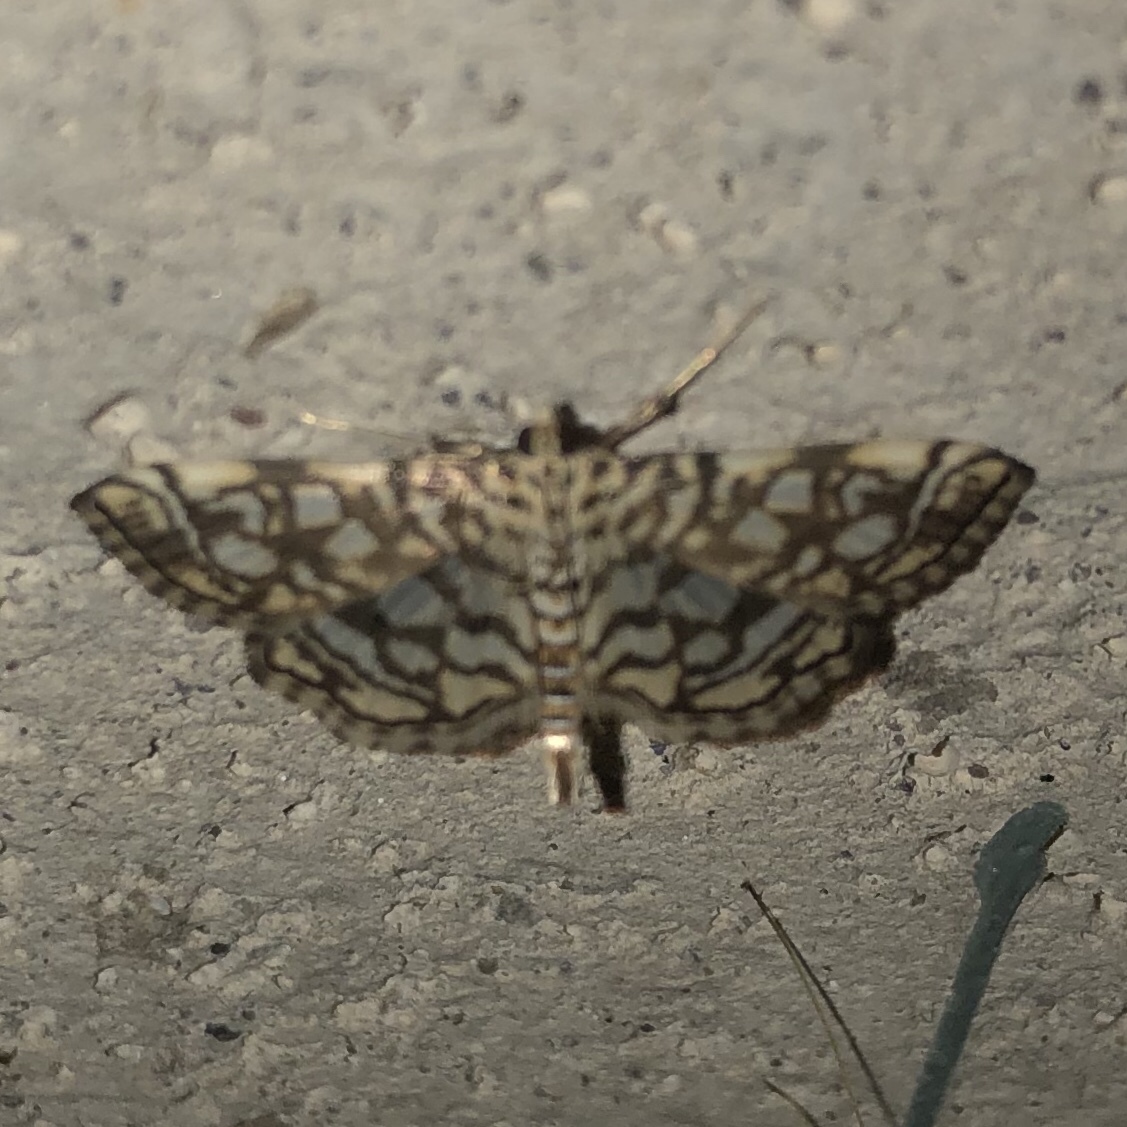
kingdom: Animalia
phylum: Arthropoda
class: Insecta
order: Lepidoptera
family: Crambidae
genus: Lygropia
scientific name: Lygropia rivulalis
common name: Bog lygropia moth
